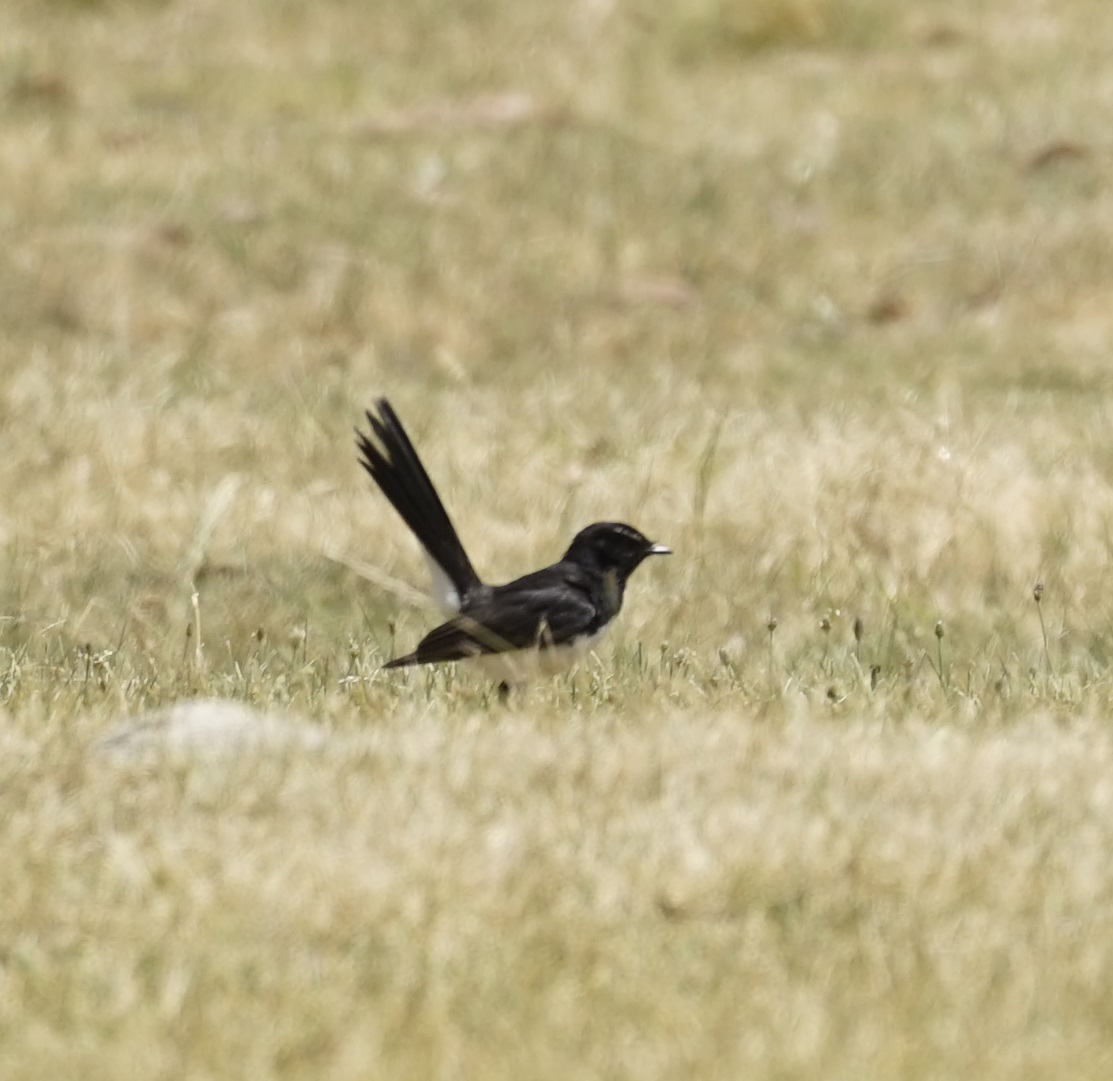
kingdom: Animalia
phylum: Chordata
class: Aves
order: Passeriformes
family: Rhipiduridae
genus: Rhipidura
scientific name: Rhipidura leucophrys
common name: Willie wagtail
